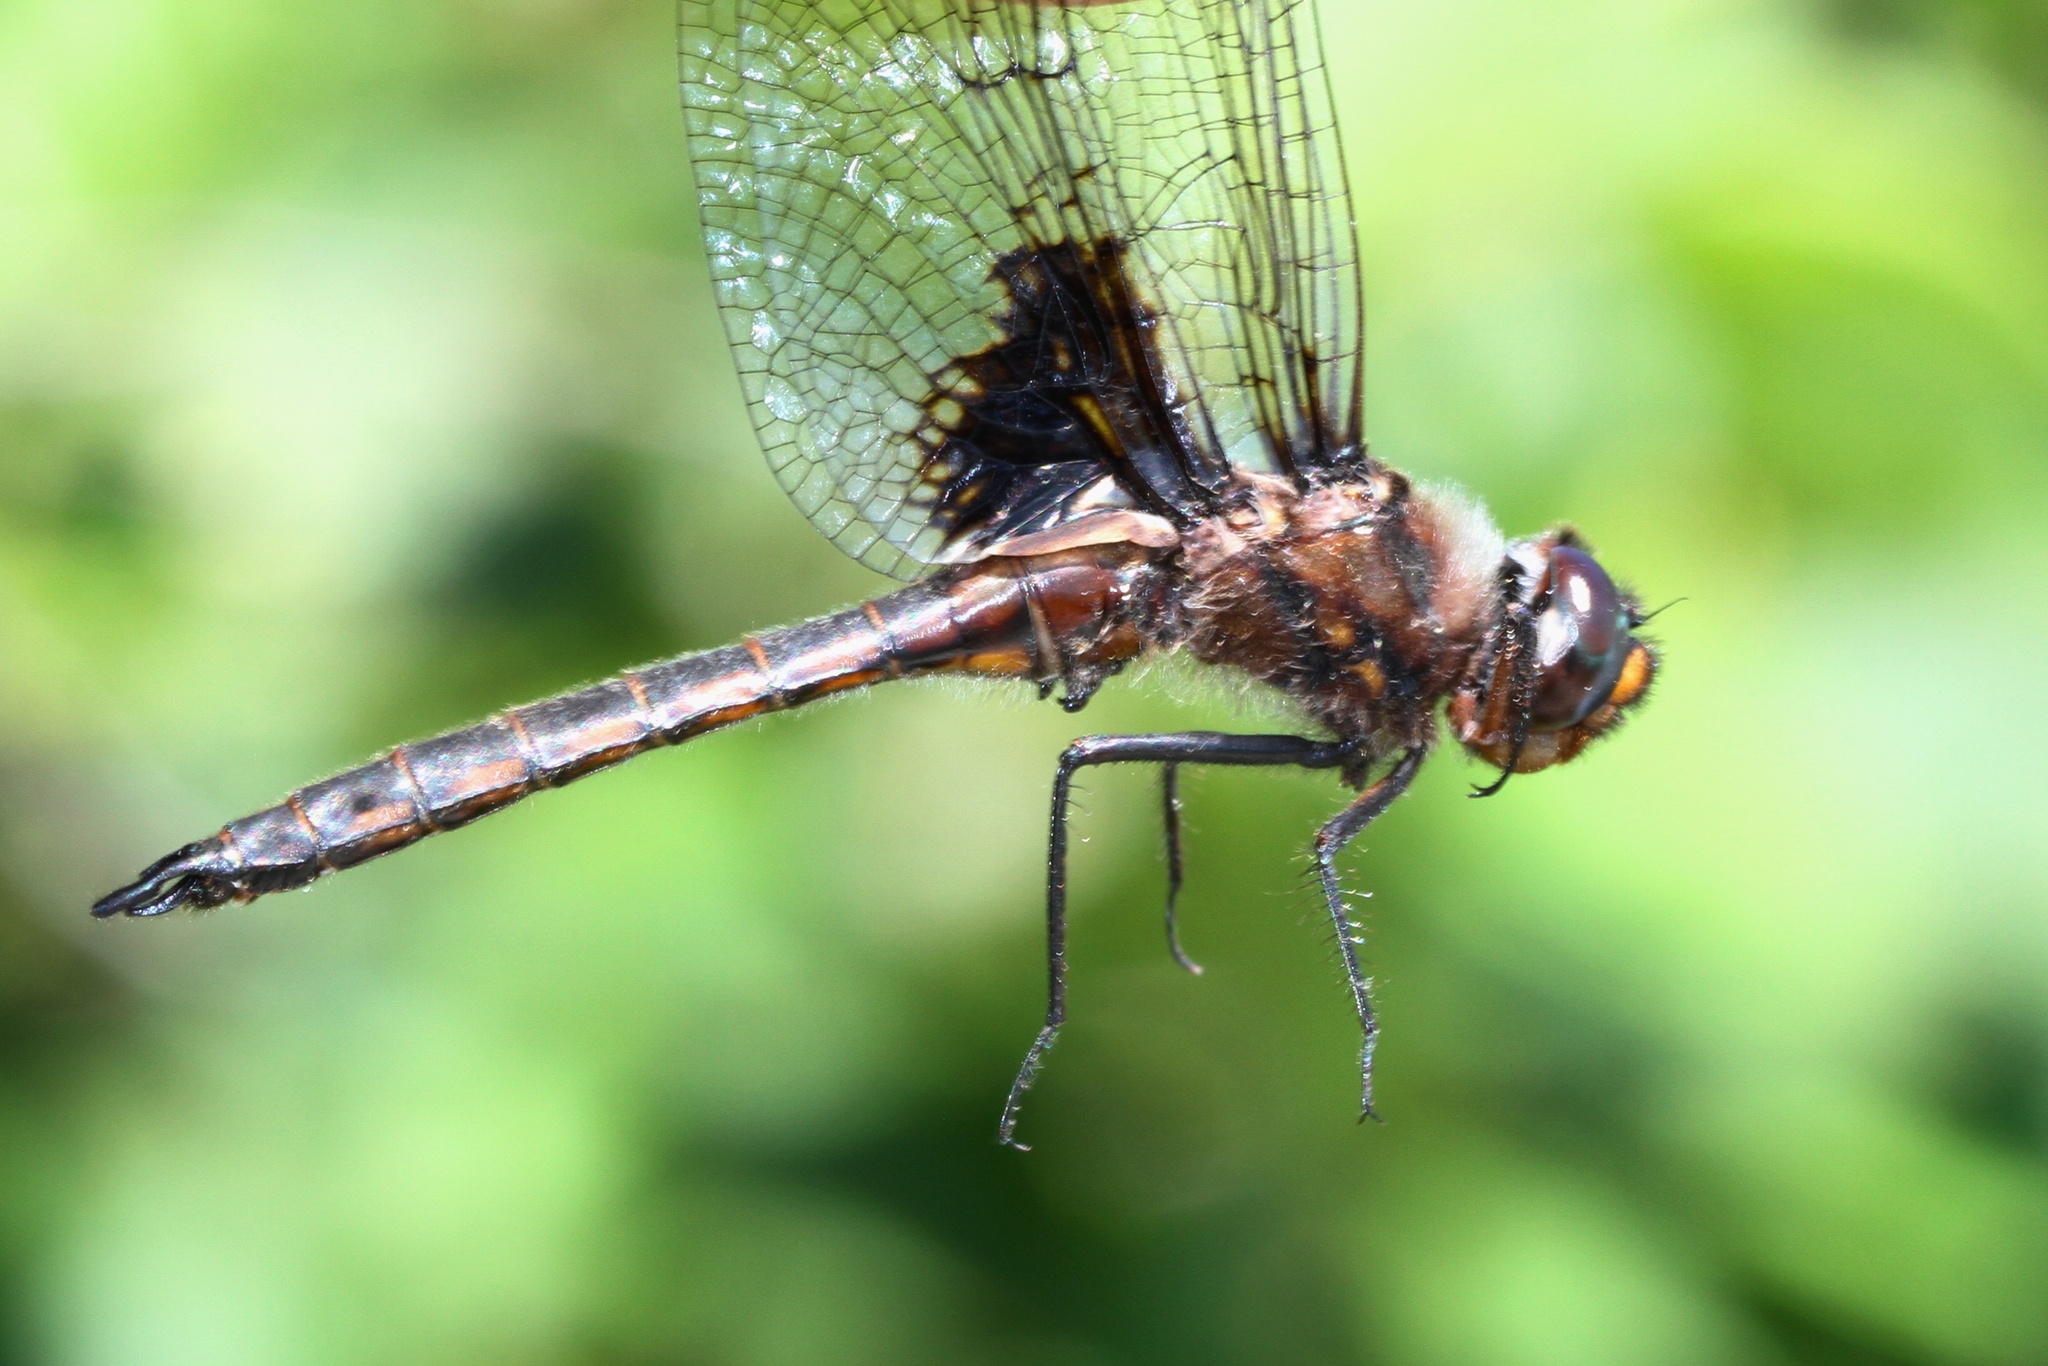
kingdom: Animalia
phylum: Arthropoda
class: Insecta
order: Odonata
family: Corduliidae
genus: Epitheca
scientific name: Epitheca cynosura
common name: Common baskettail
